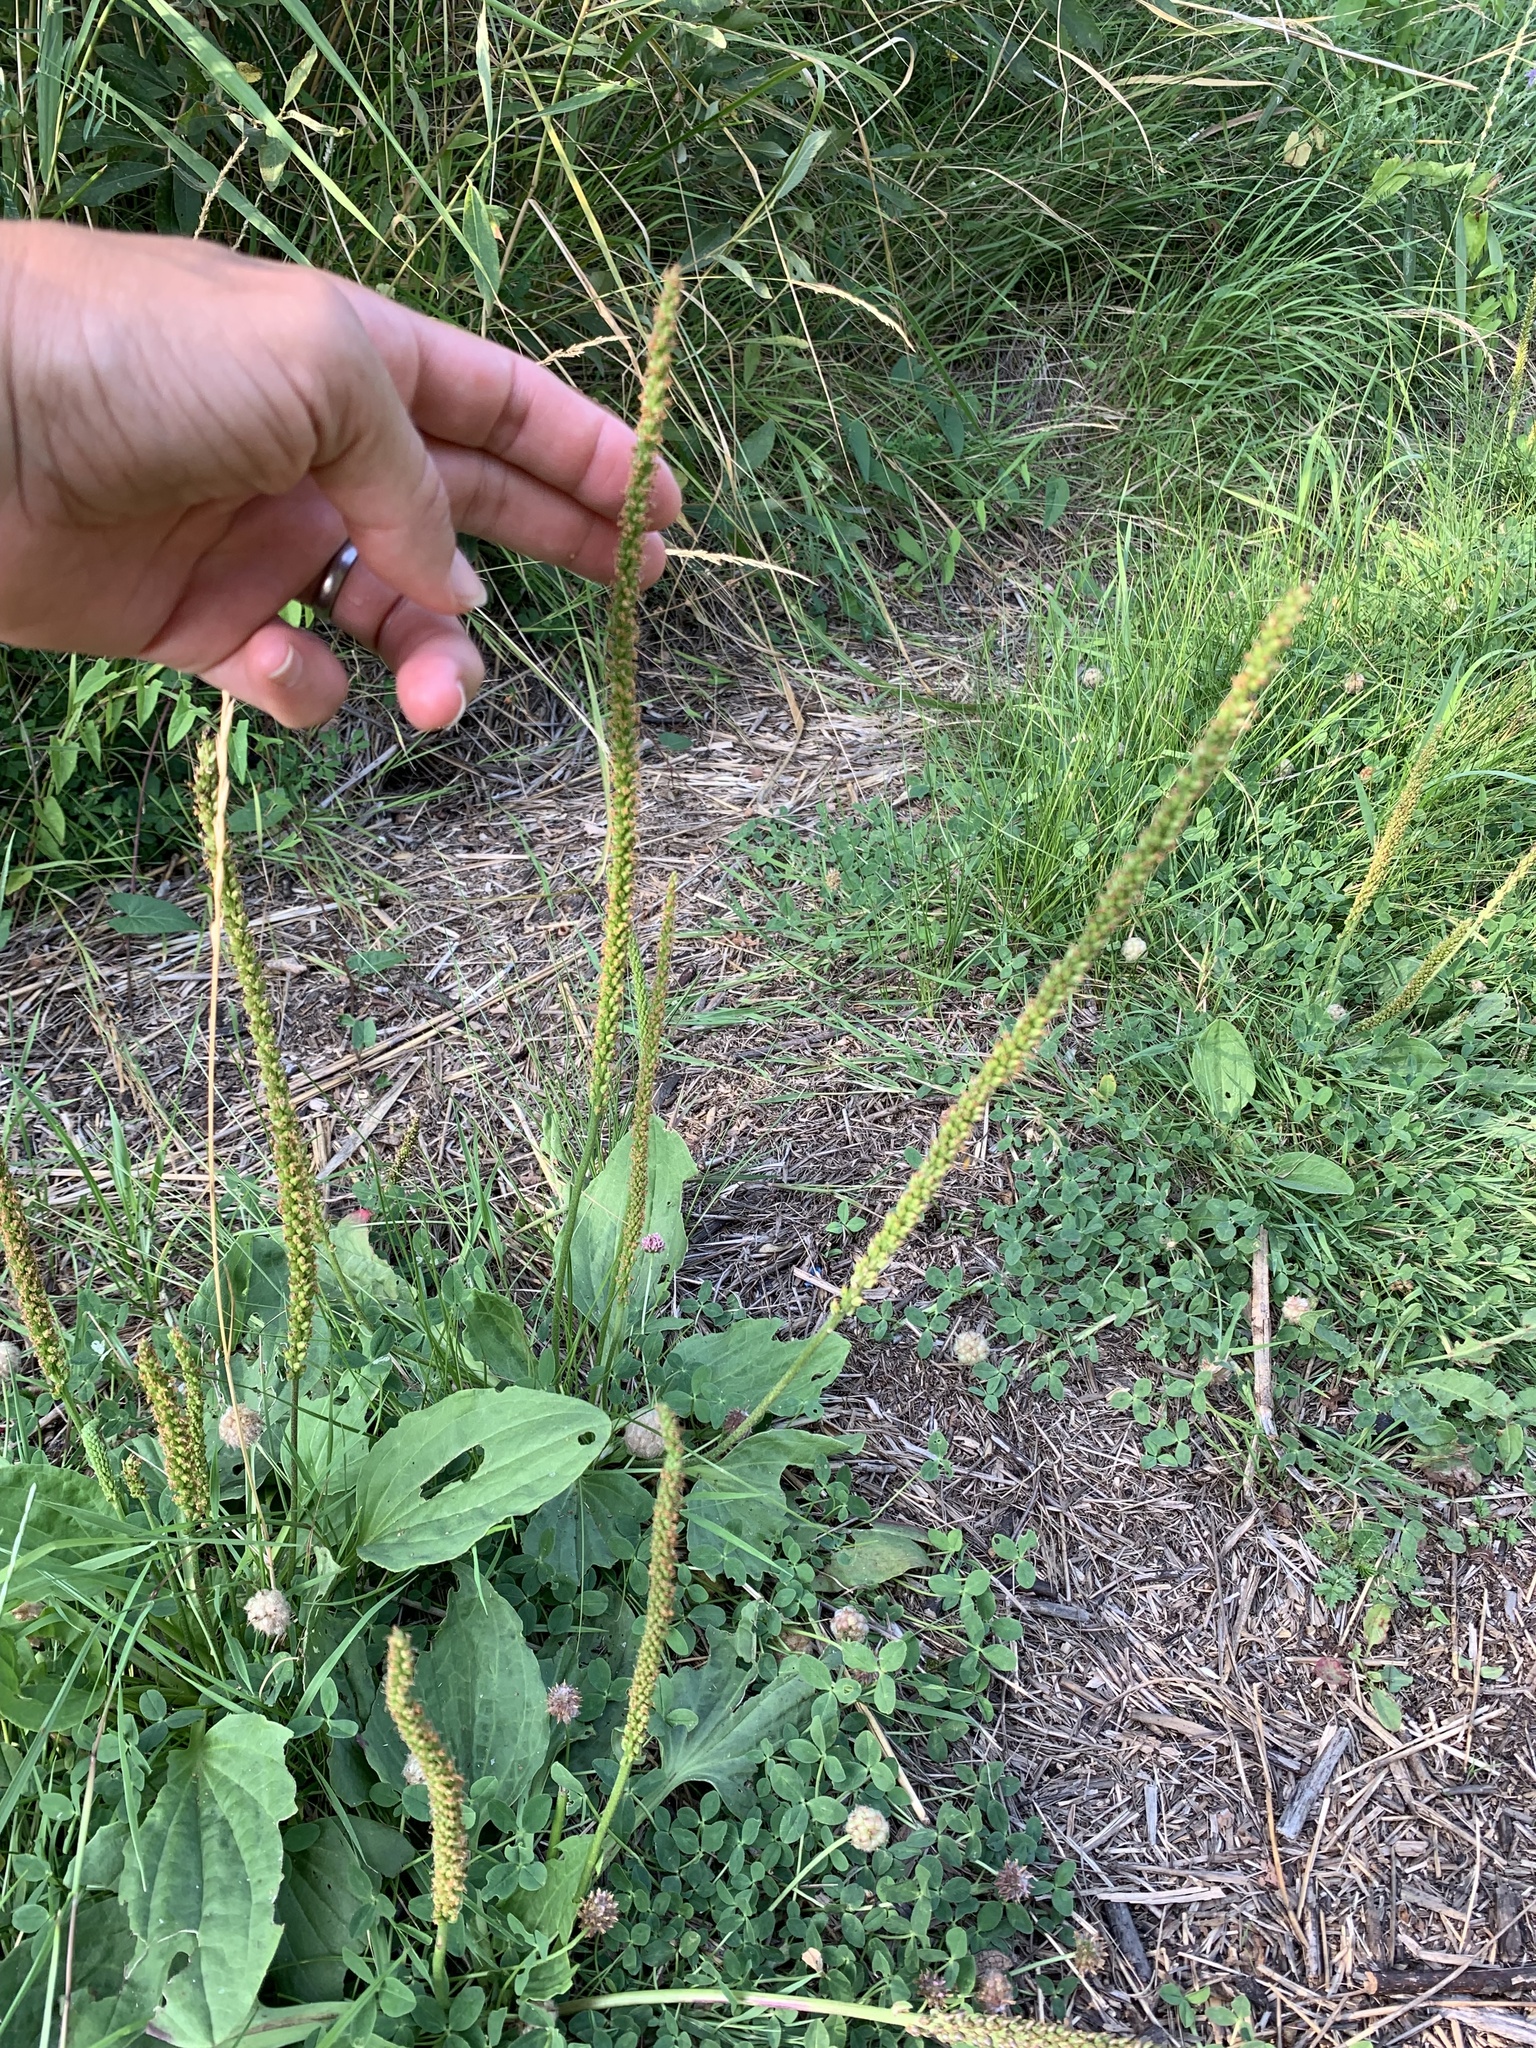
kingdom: Plantae
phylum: Tracheophyta
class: Magnoliopsida
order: Lamiales
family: Plantaginaceae
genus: Plantago
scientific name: Plantago major
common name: Common plantain
